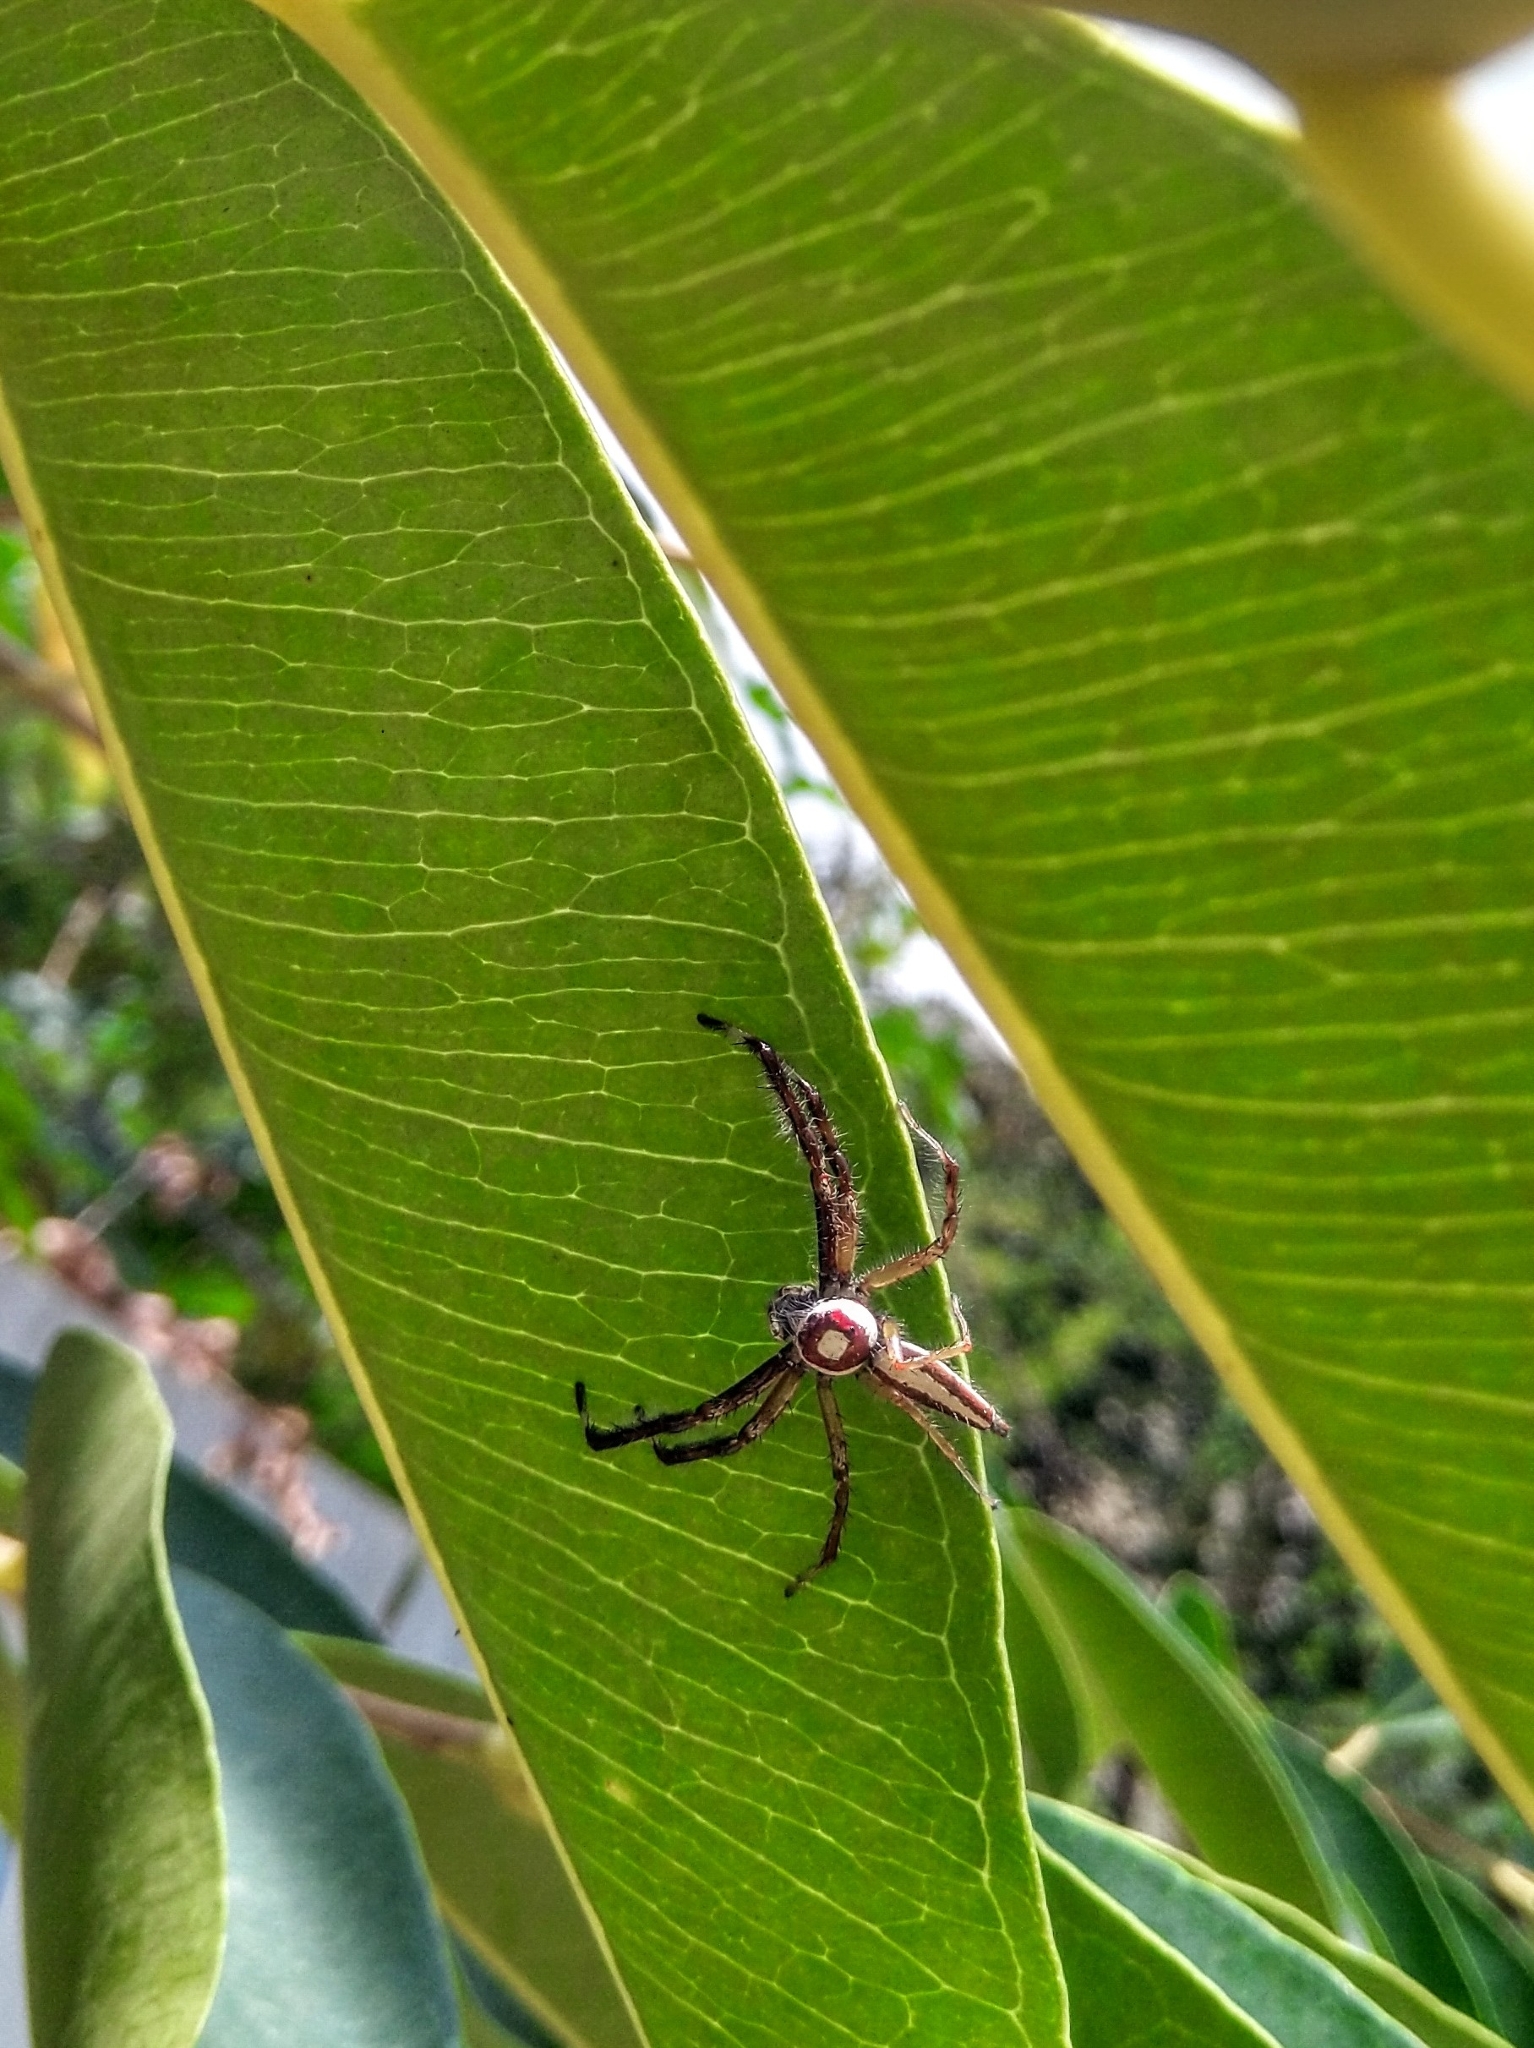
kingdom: Animalia
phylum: Arthropoda
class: Arachnida
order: Araneae
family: Salticidae
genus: Telamonia
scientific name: Telamonia dimidiata
